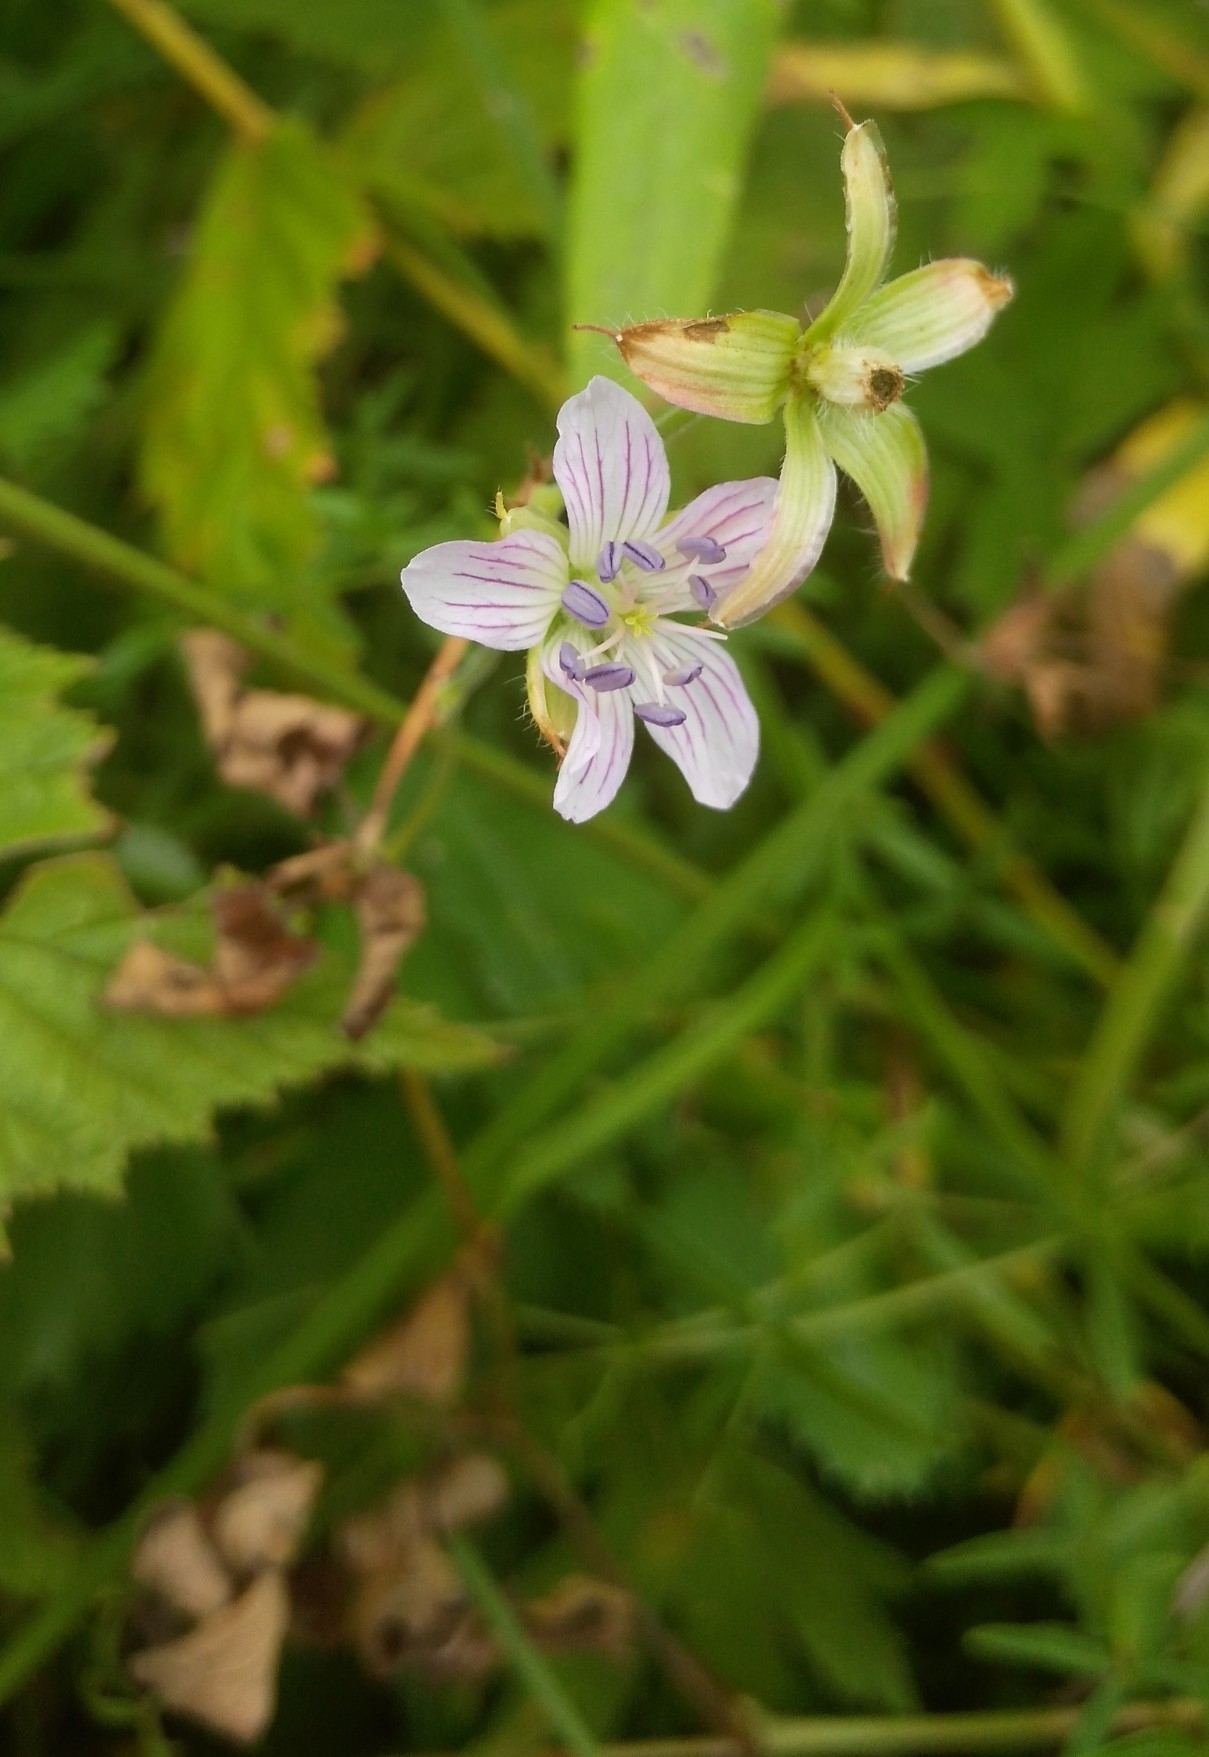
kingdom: Plantae
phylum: Tracheophyta
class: Magnoliopsida
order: Geraniales
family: Geraniaceae
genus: Geranium
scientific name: Geranium wlassovianum
